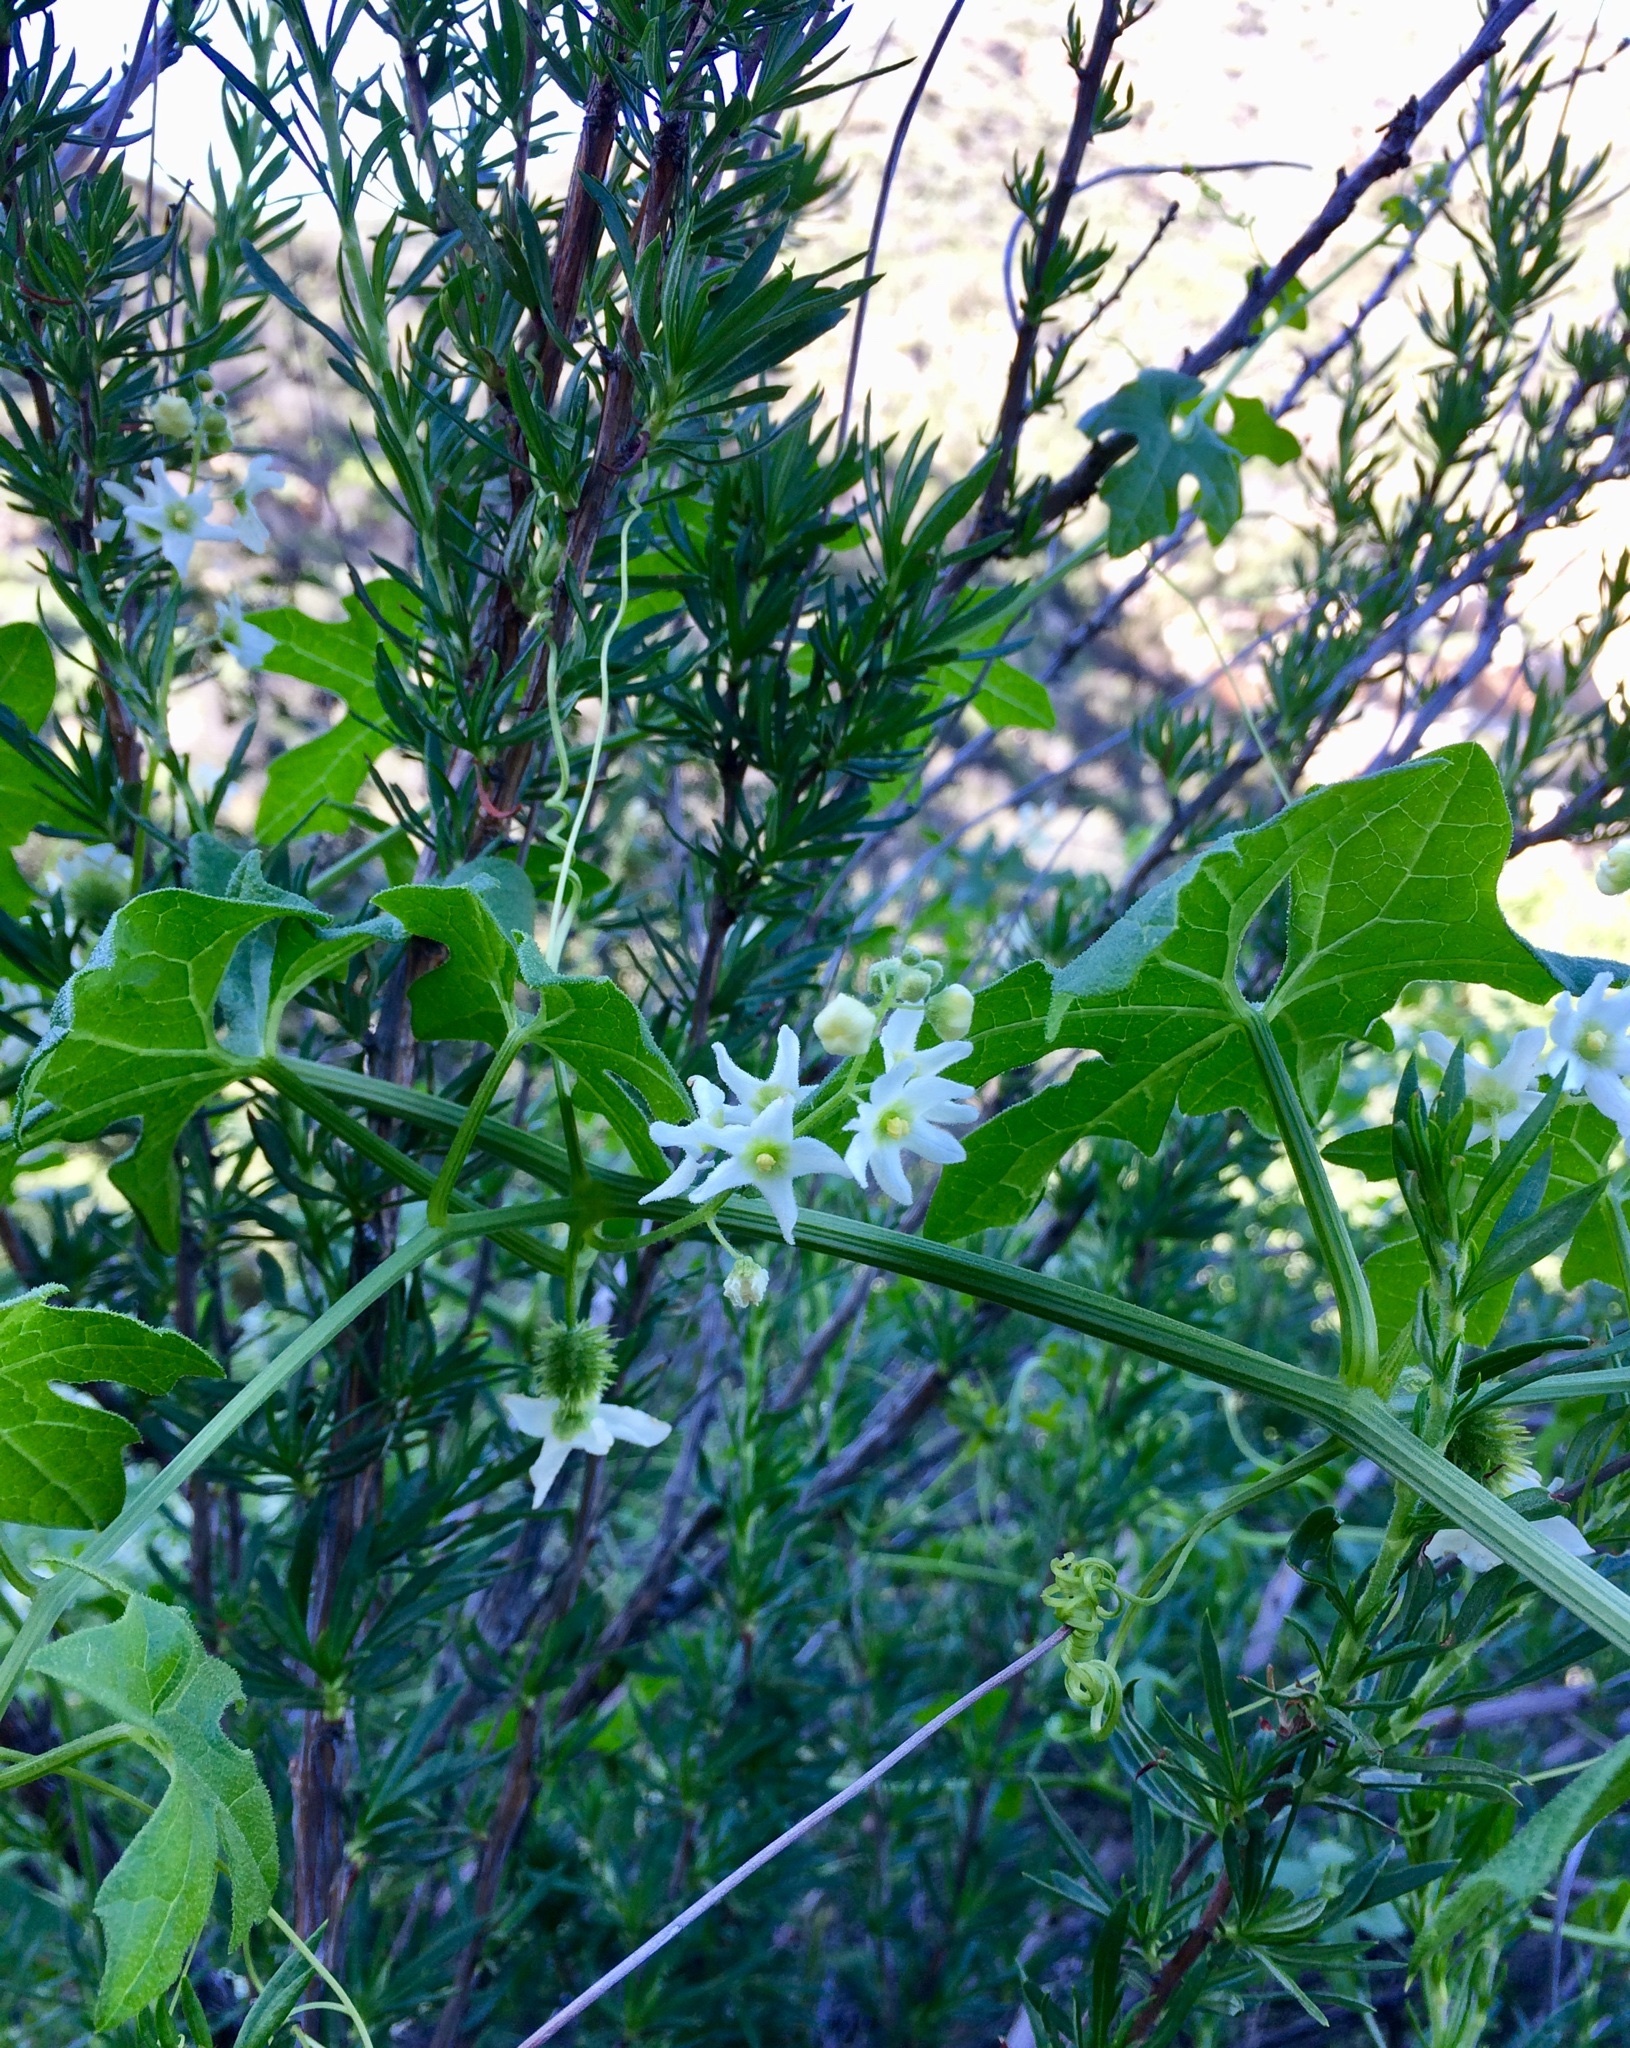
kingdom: Plantae
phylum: Tracheophyta
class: Magnoliopsida
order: Cucurbitales
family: Cucurbitaceae
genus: Marah
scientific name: Marah macrocarpa
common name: Cucamonga manroot
